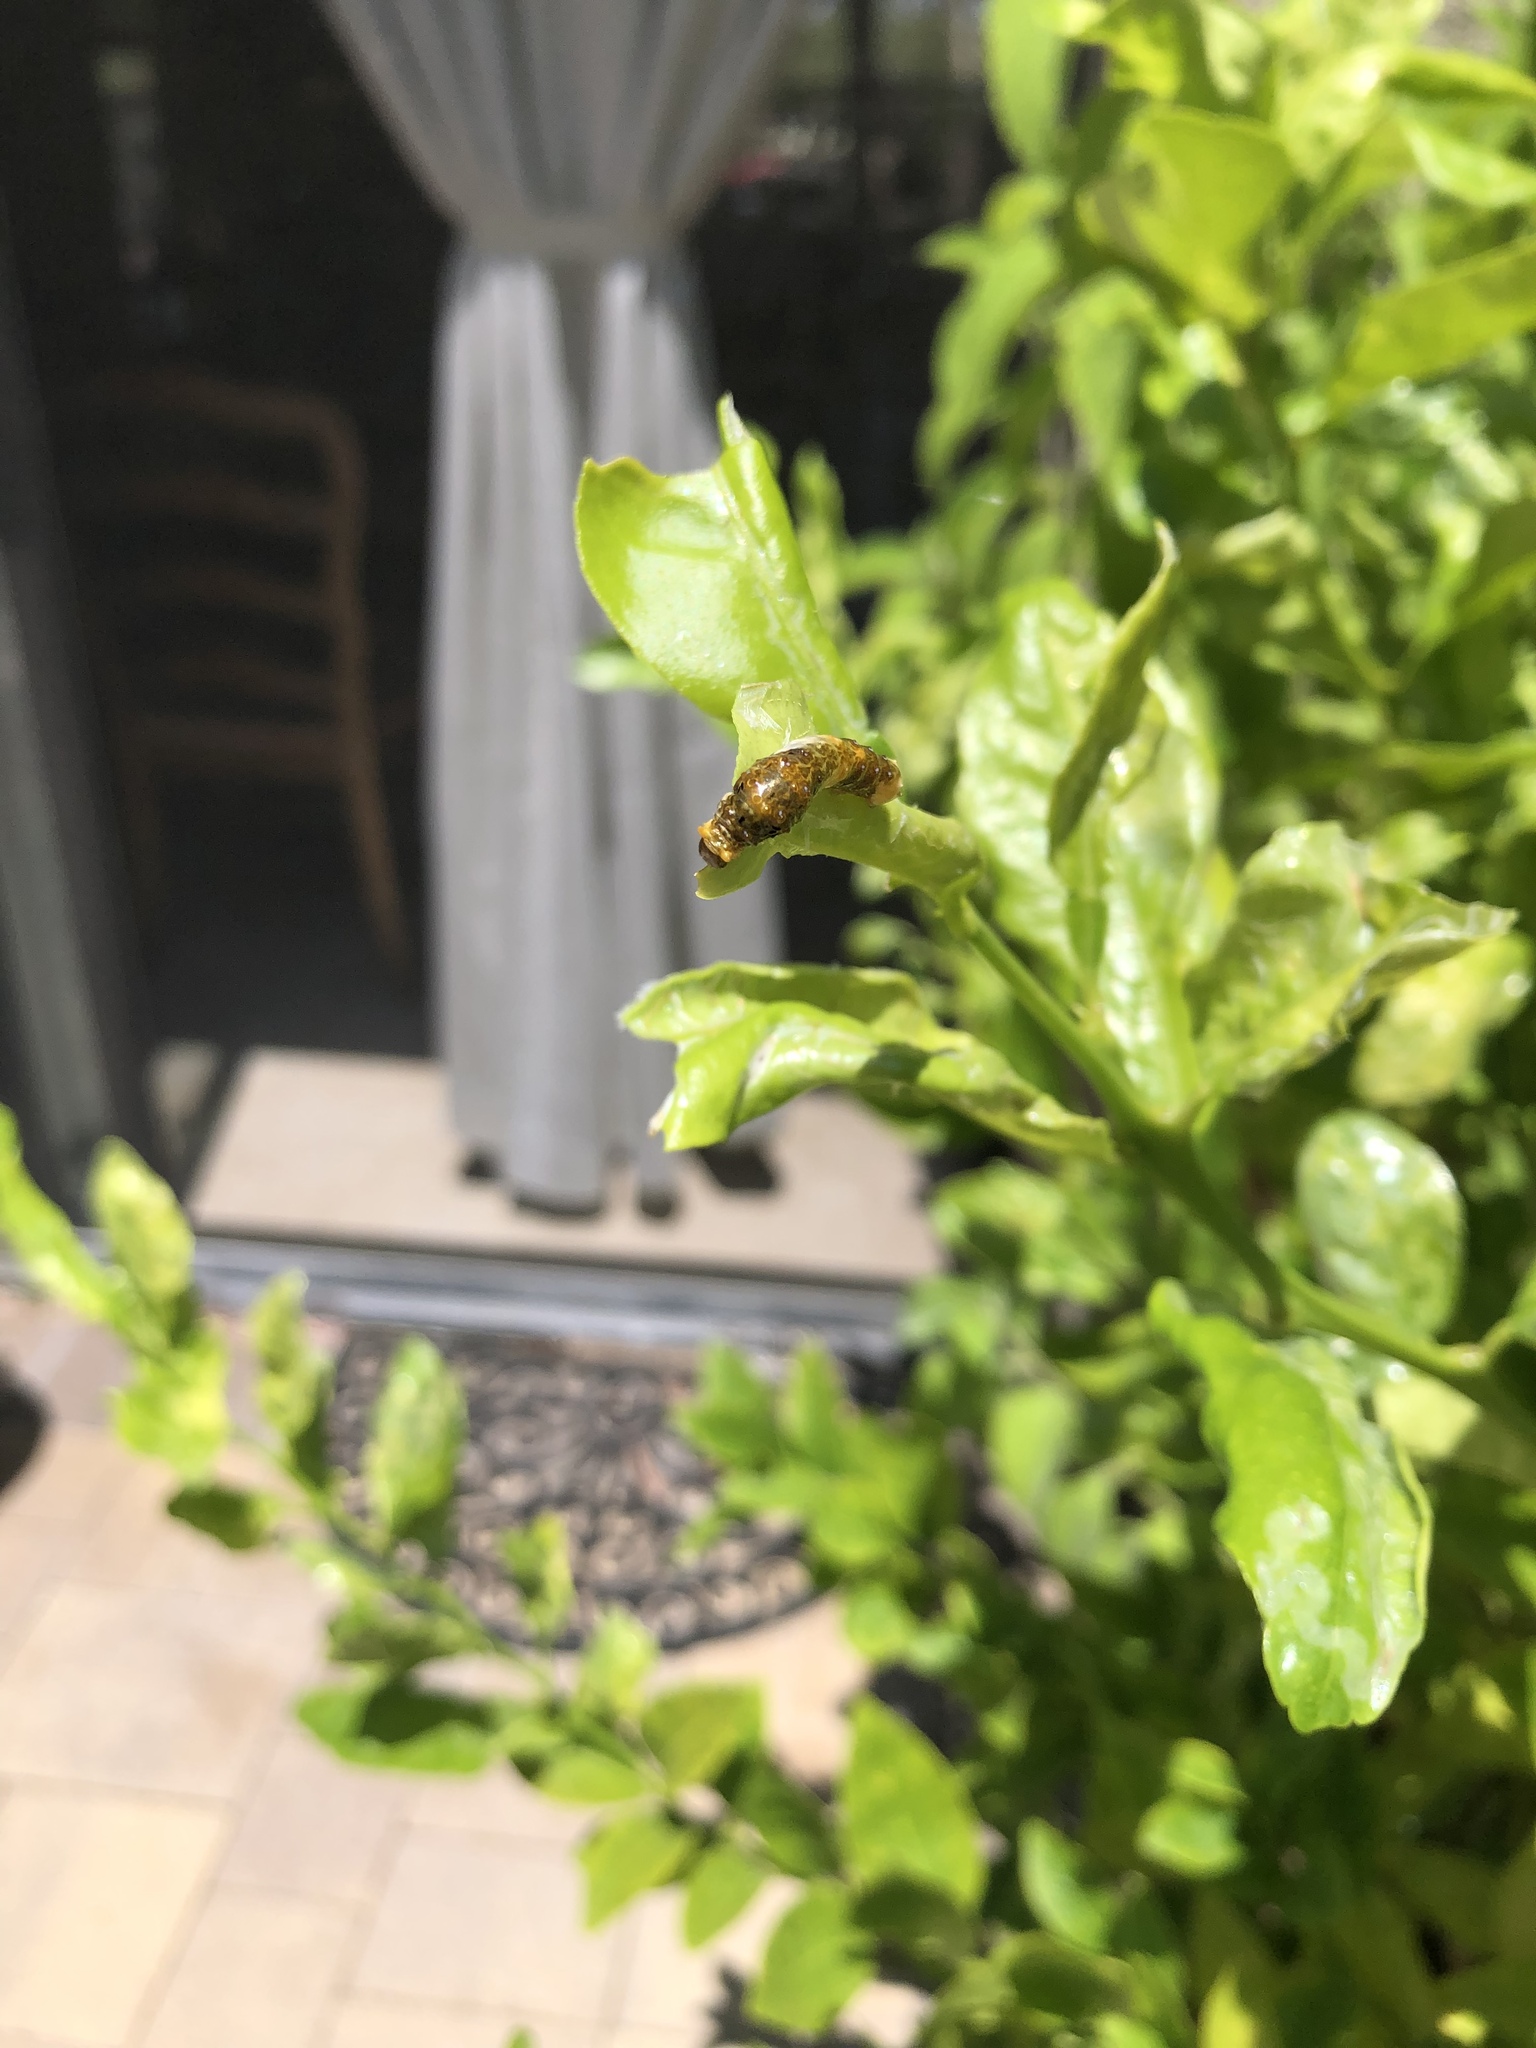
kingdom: Animalia
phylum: Arthropoda
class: Insecta
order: Lepidoptera
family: Papilionidae
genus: Papilio
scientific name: Papilio rumiko
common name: Western giant swallowtail
